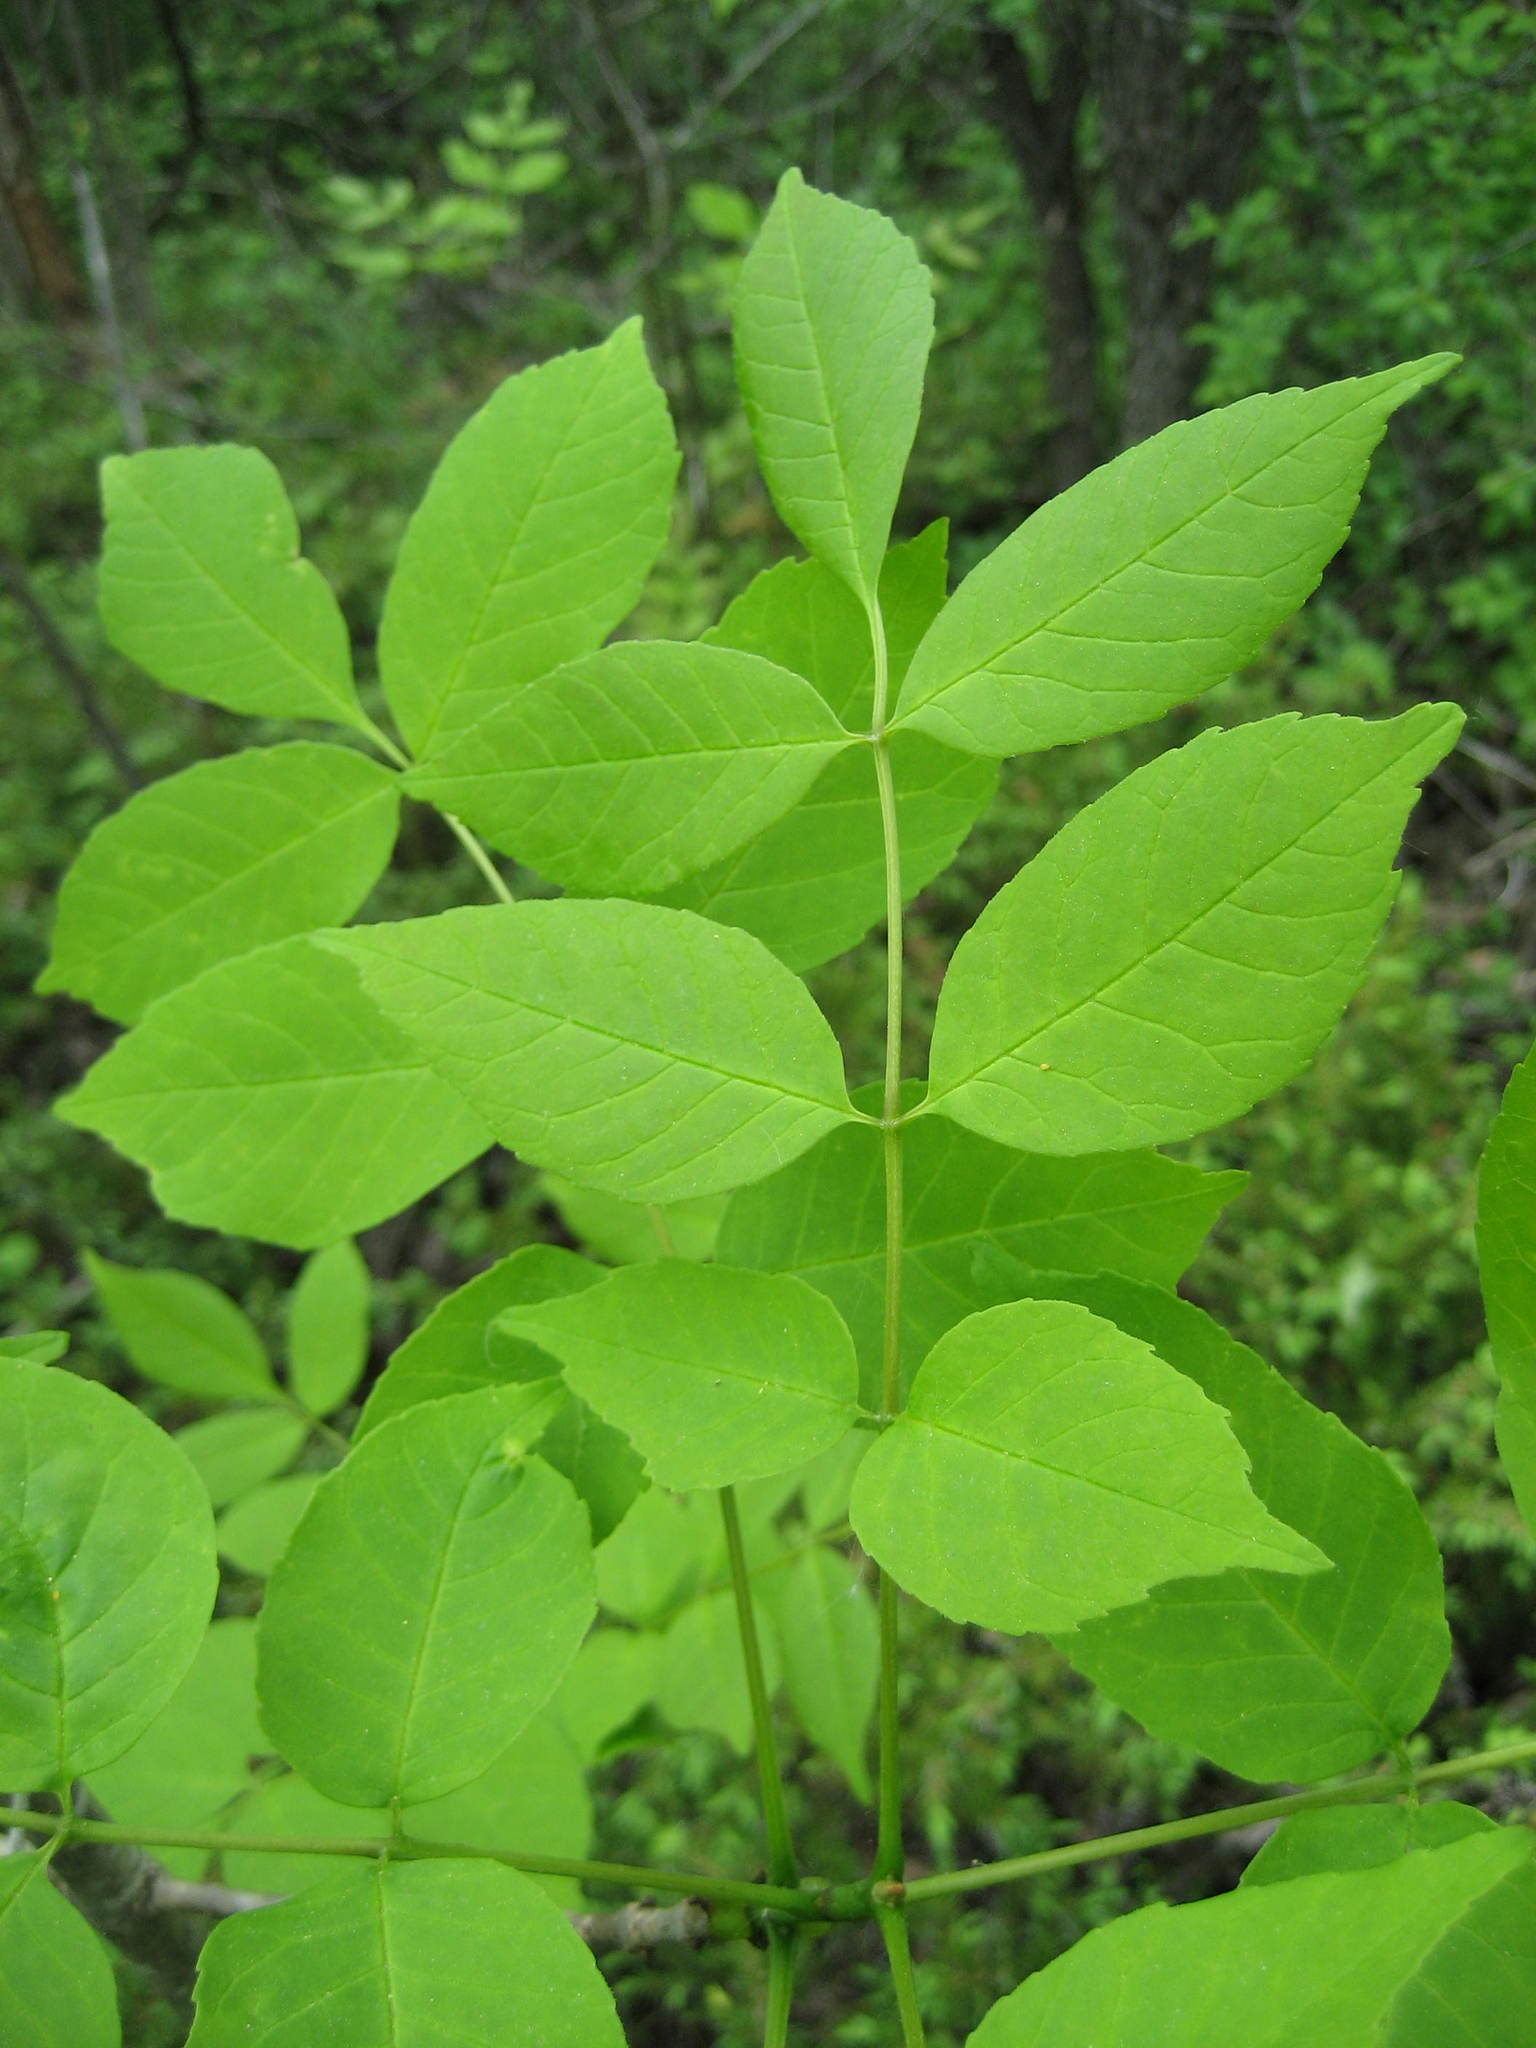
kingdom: Plantae
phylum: Tracheophyta
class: Magnoliopsida
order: Lamiales
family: Oleaceae
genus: Fraxinus
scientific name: Fraxinus americana
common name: White ash
